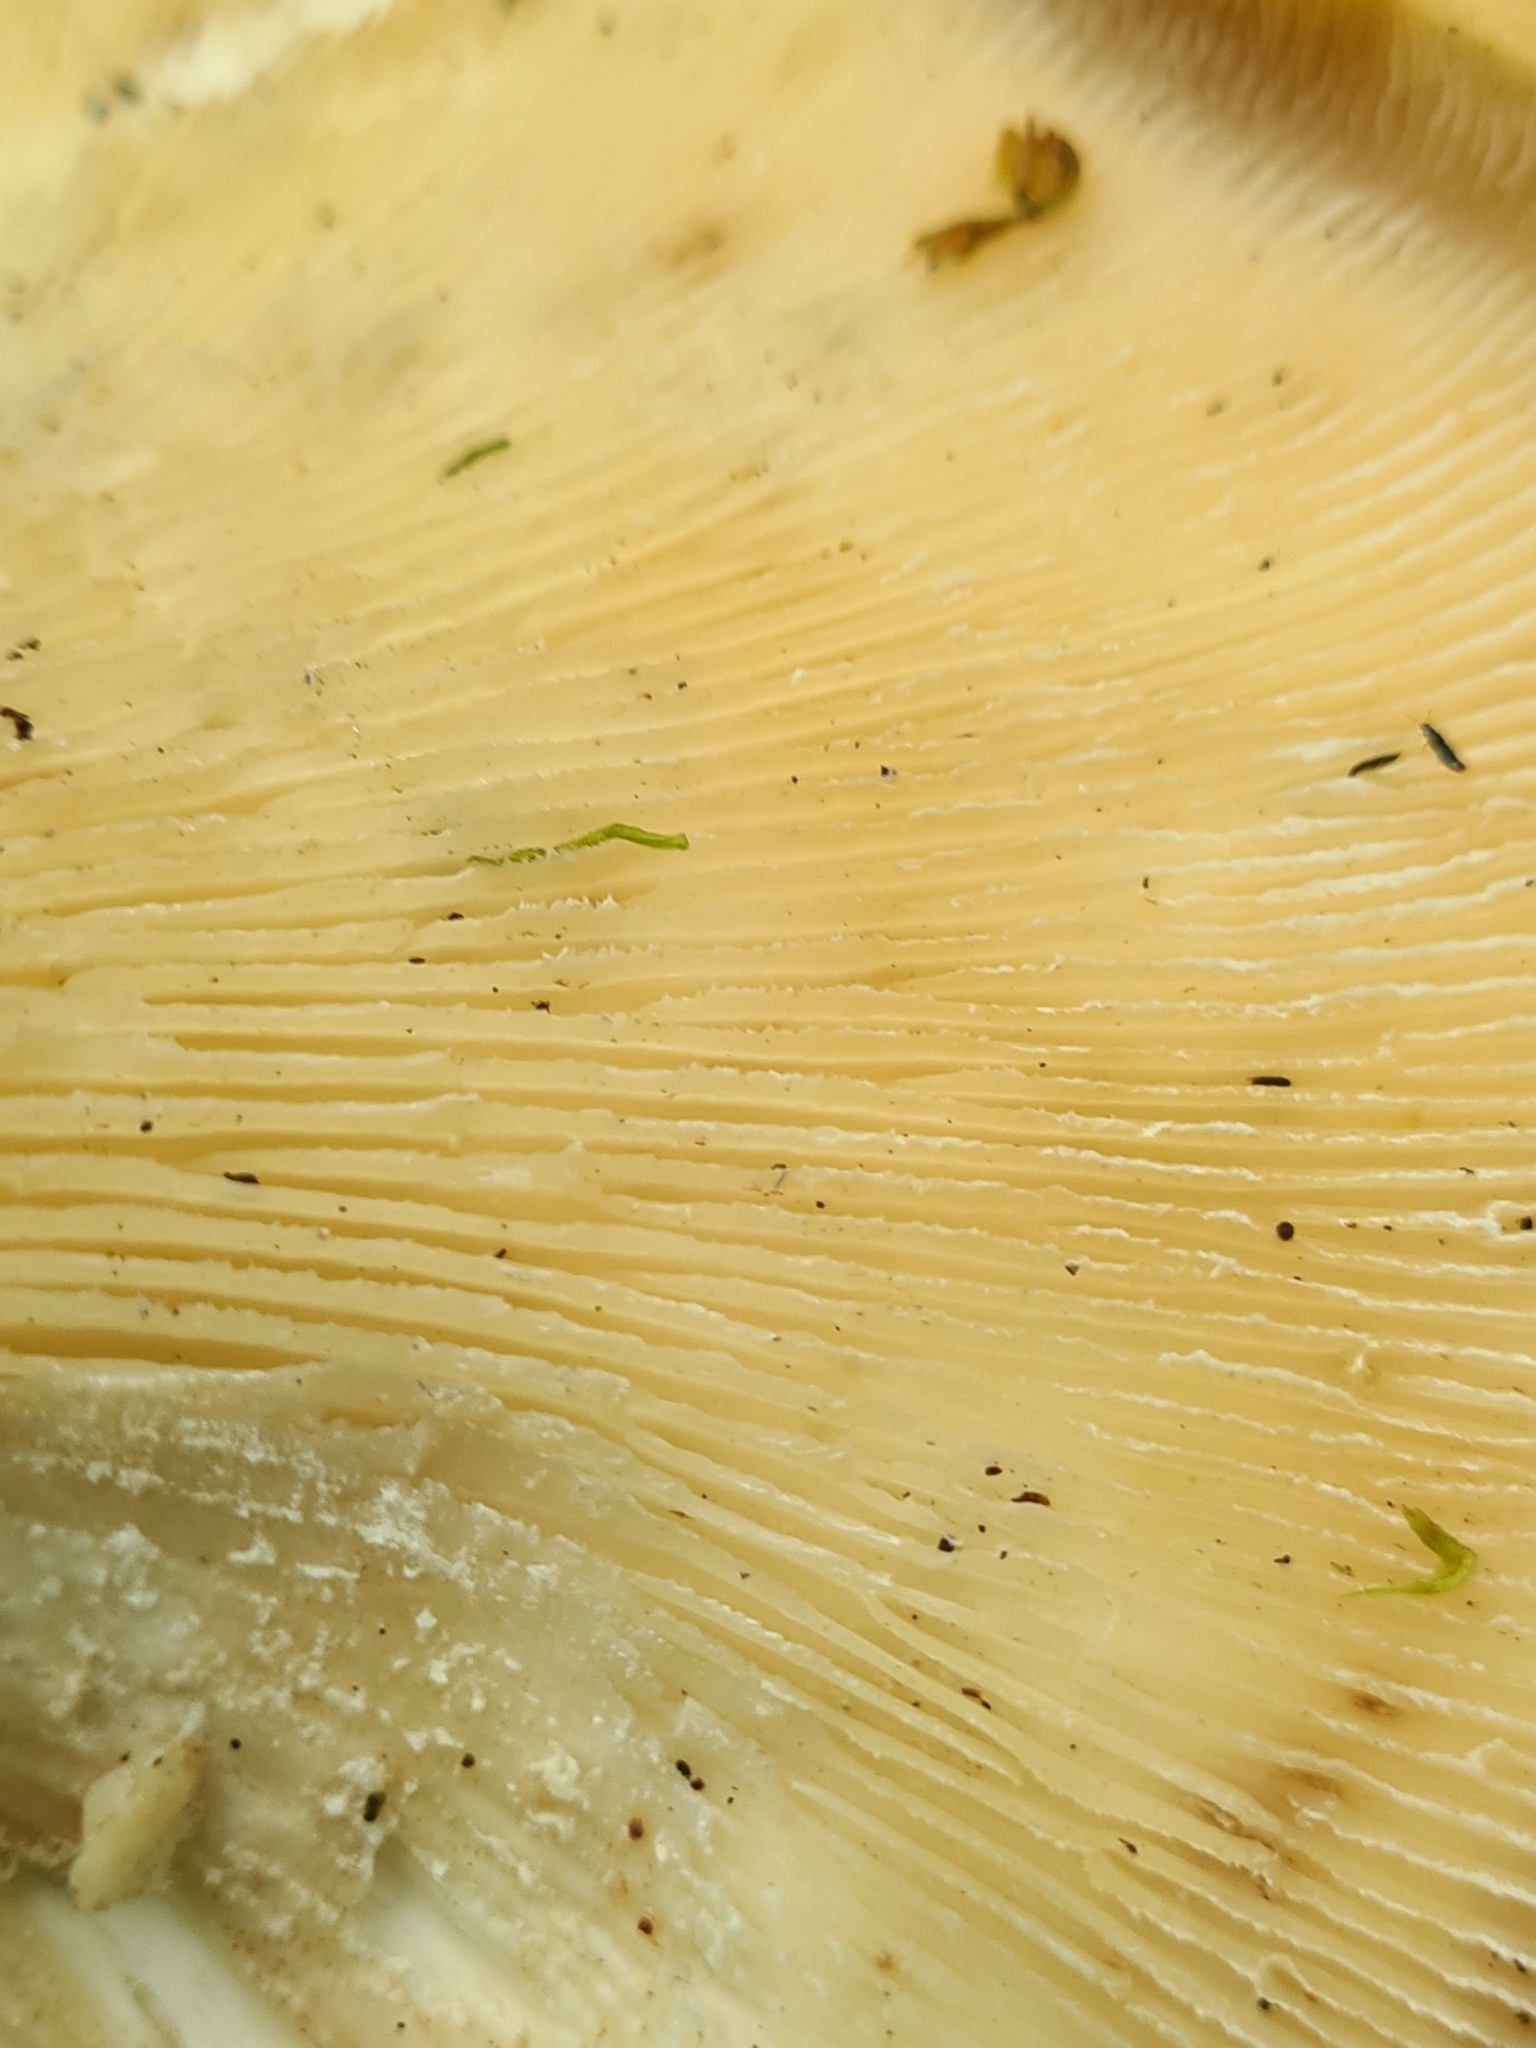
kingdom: Fungi
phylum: Basidiomycota
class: Agaricomycetes
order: Gloeophyllales
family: Gloeophyllaceae
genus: Neolentinus
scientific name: Neolentinus cyathiformis
